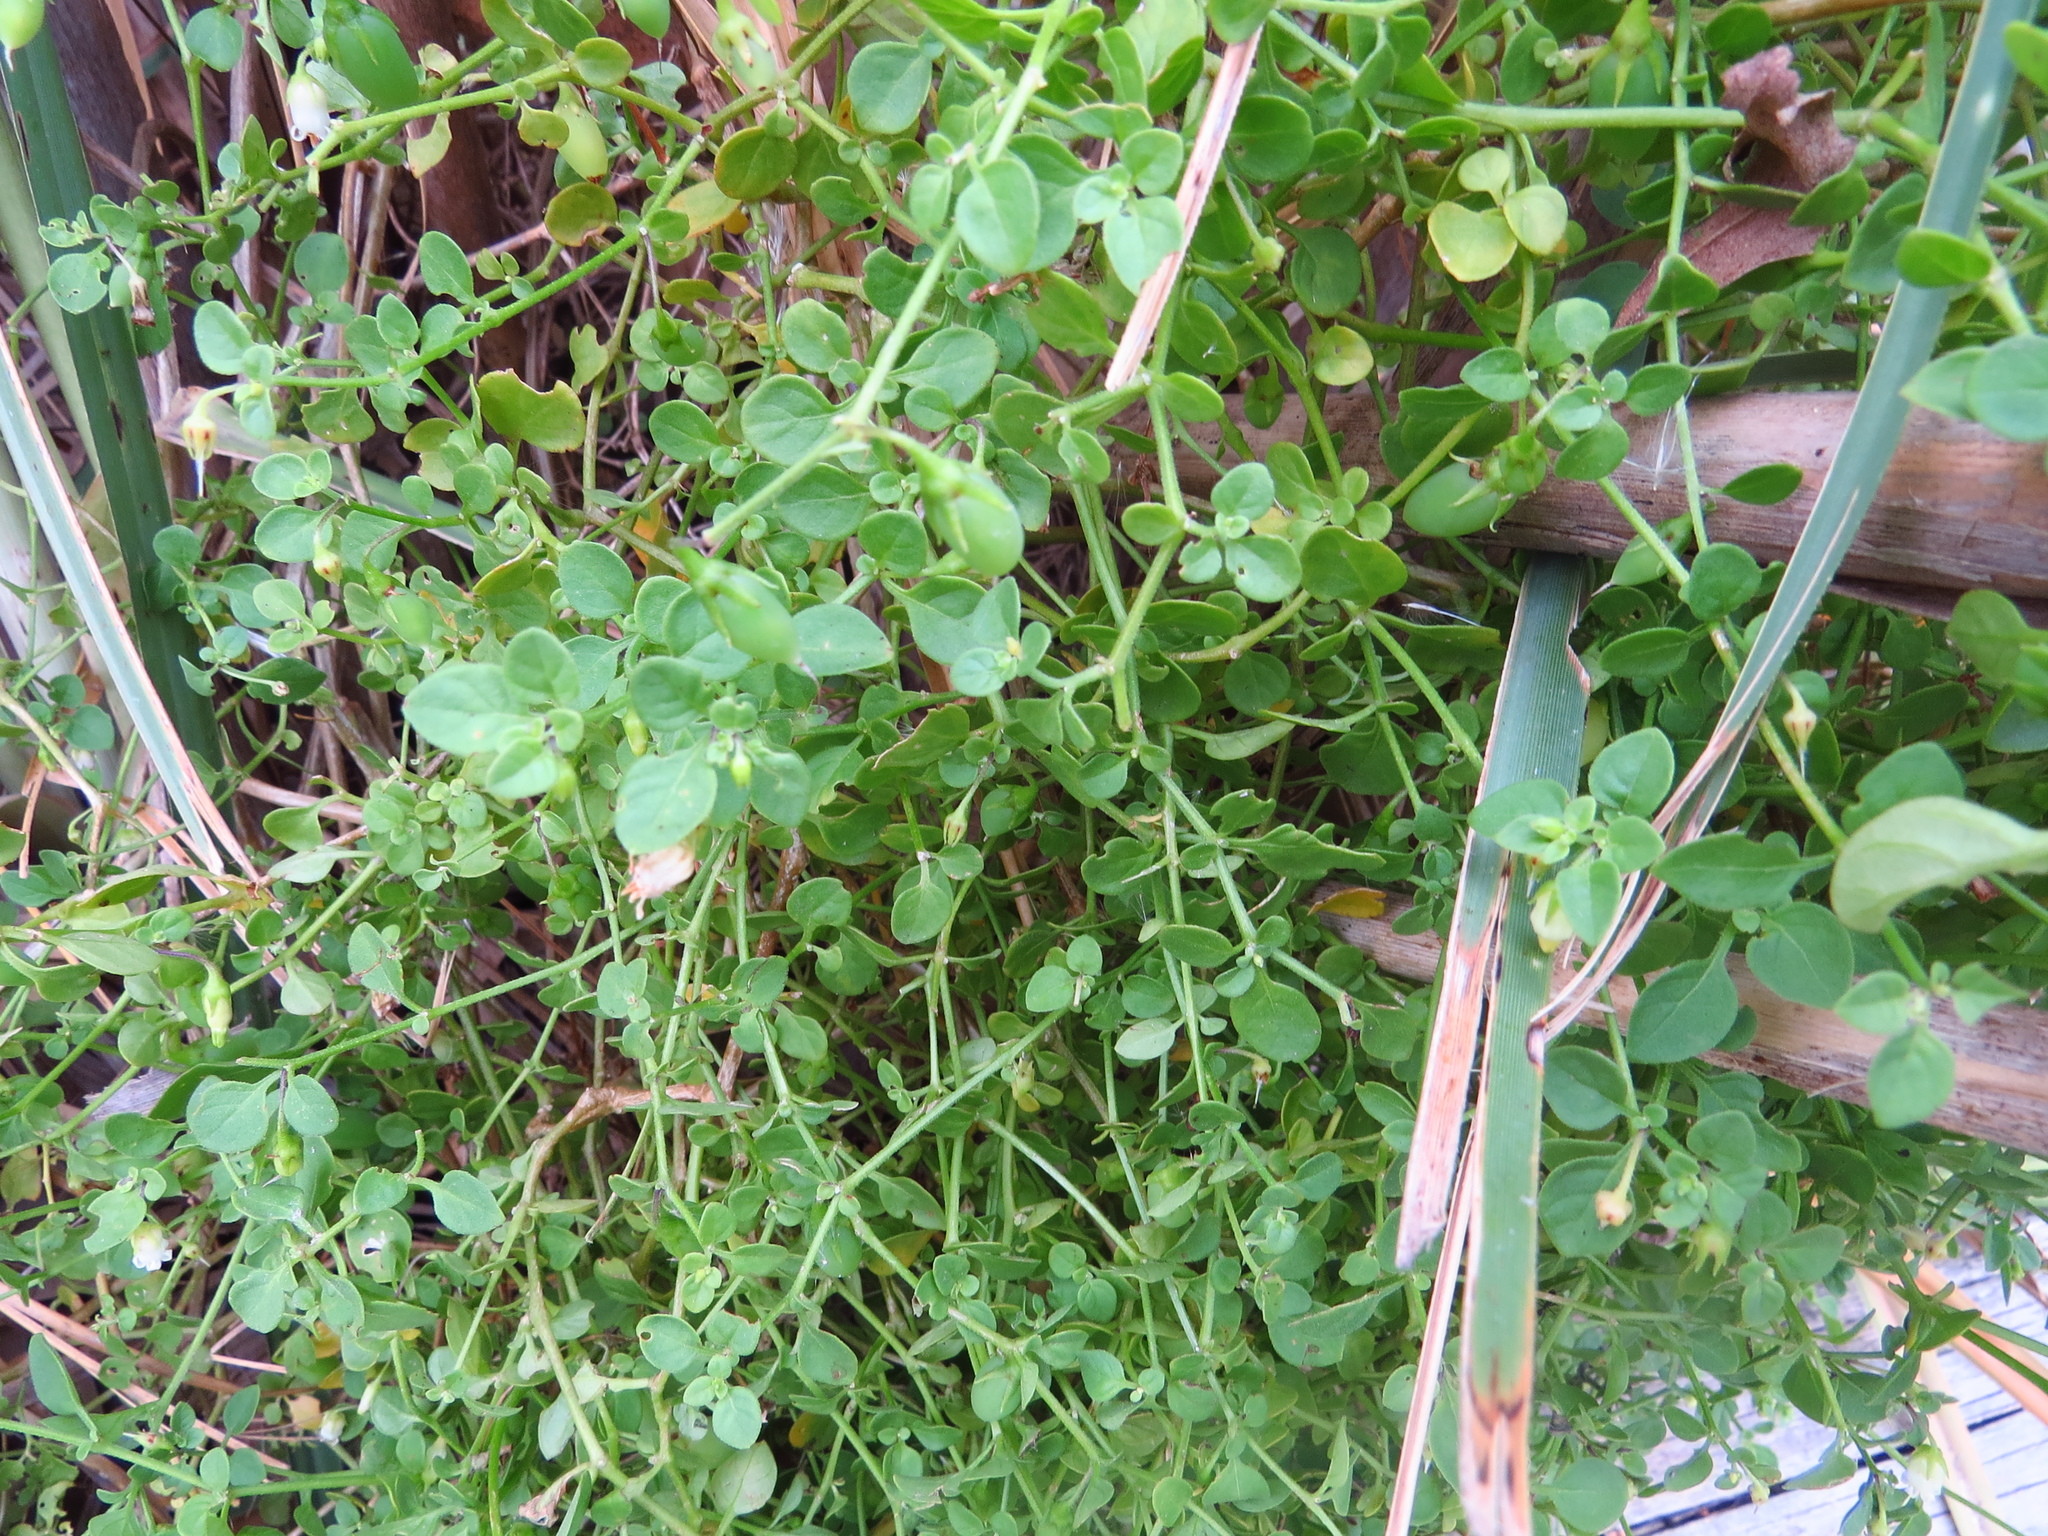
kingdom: Plantae
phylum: Tracheophyta
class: Magnoliopsida
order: Solanales
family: Solanaceae
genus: Salpichroa
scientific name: Salpichroa origanifolia
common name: Lily-of-the-valley-vine
